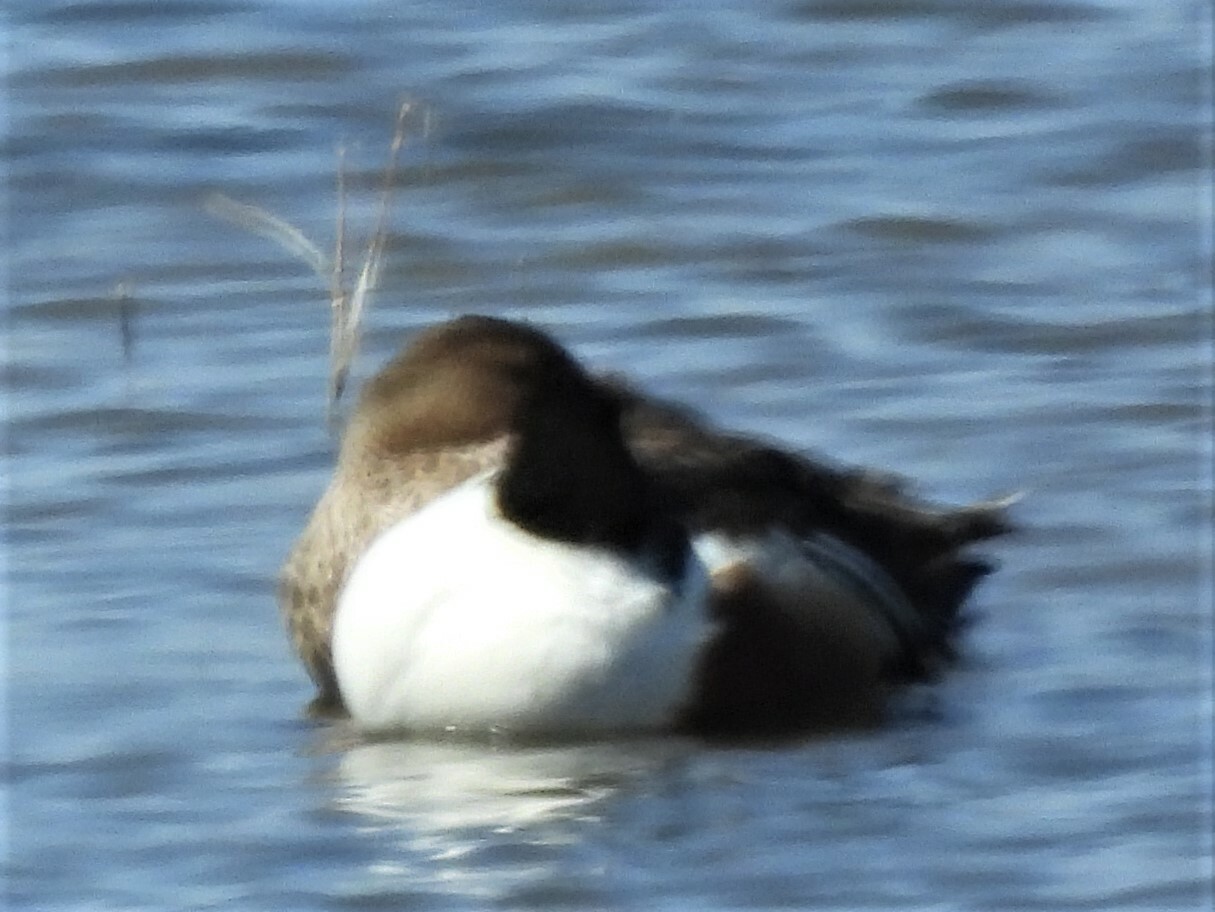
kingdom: Animalia
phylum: Chordata
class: Aves
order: Anseriformes
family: Anatidae
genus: Spatula
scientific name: Spatula clypeata
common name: Northern shoveler
